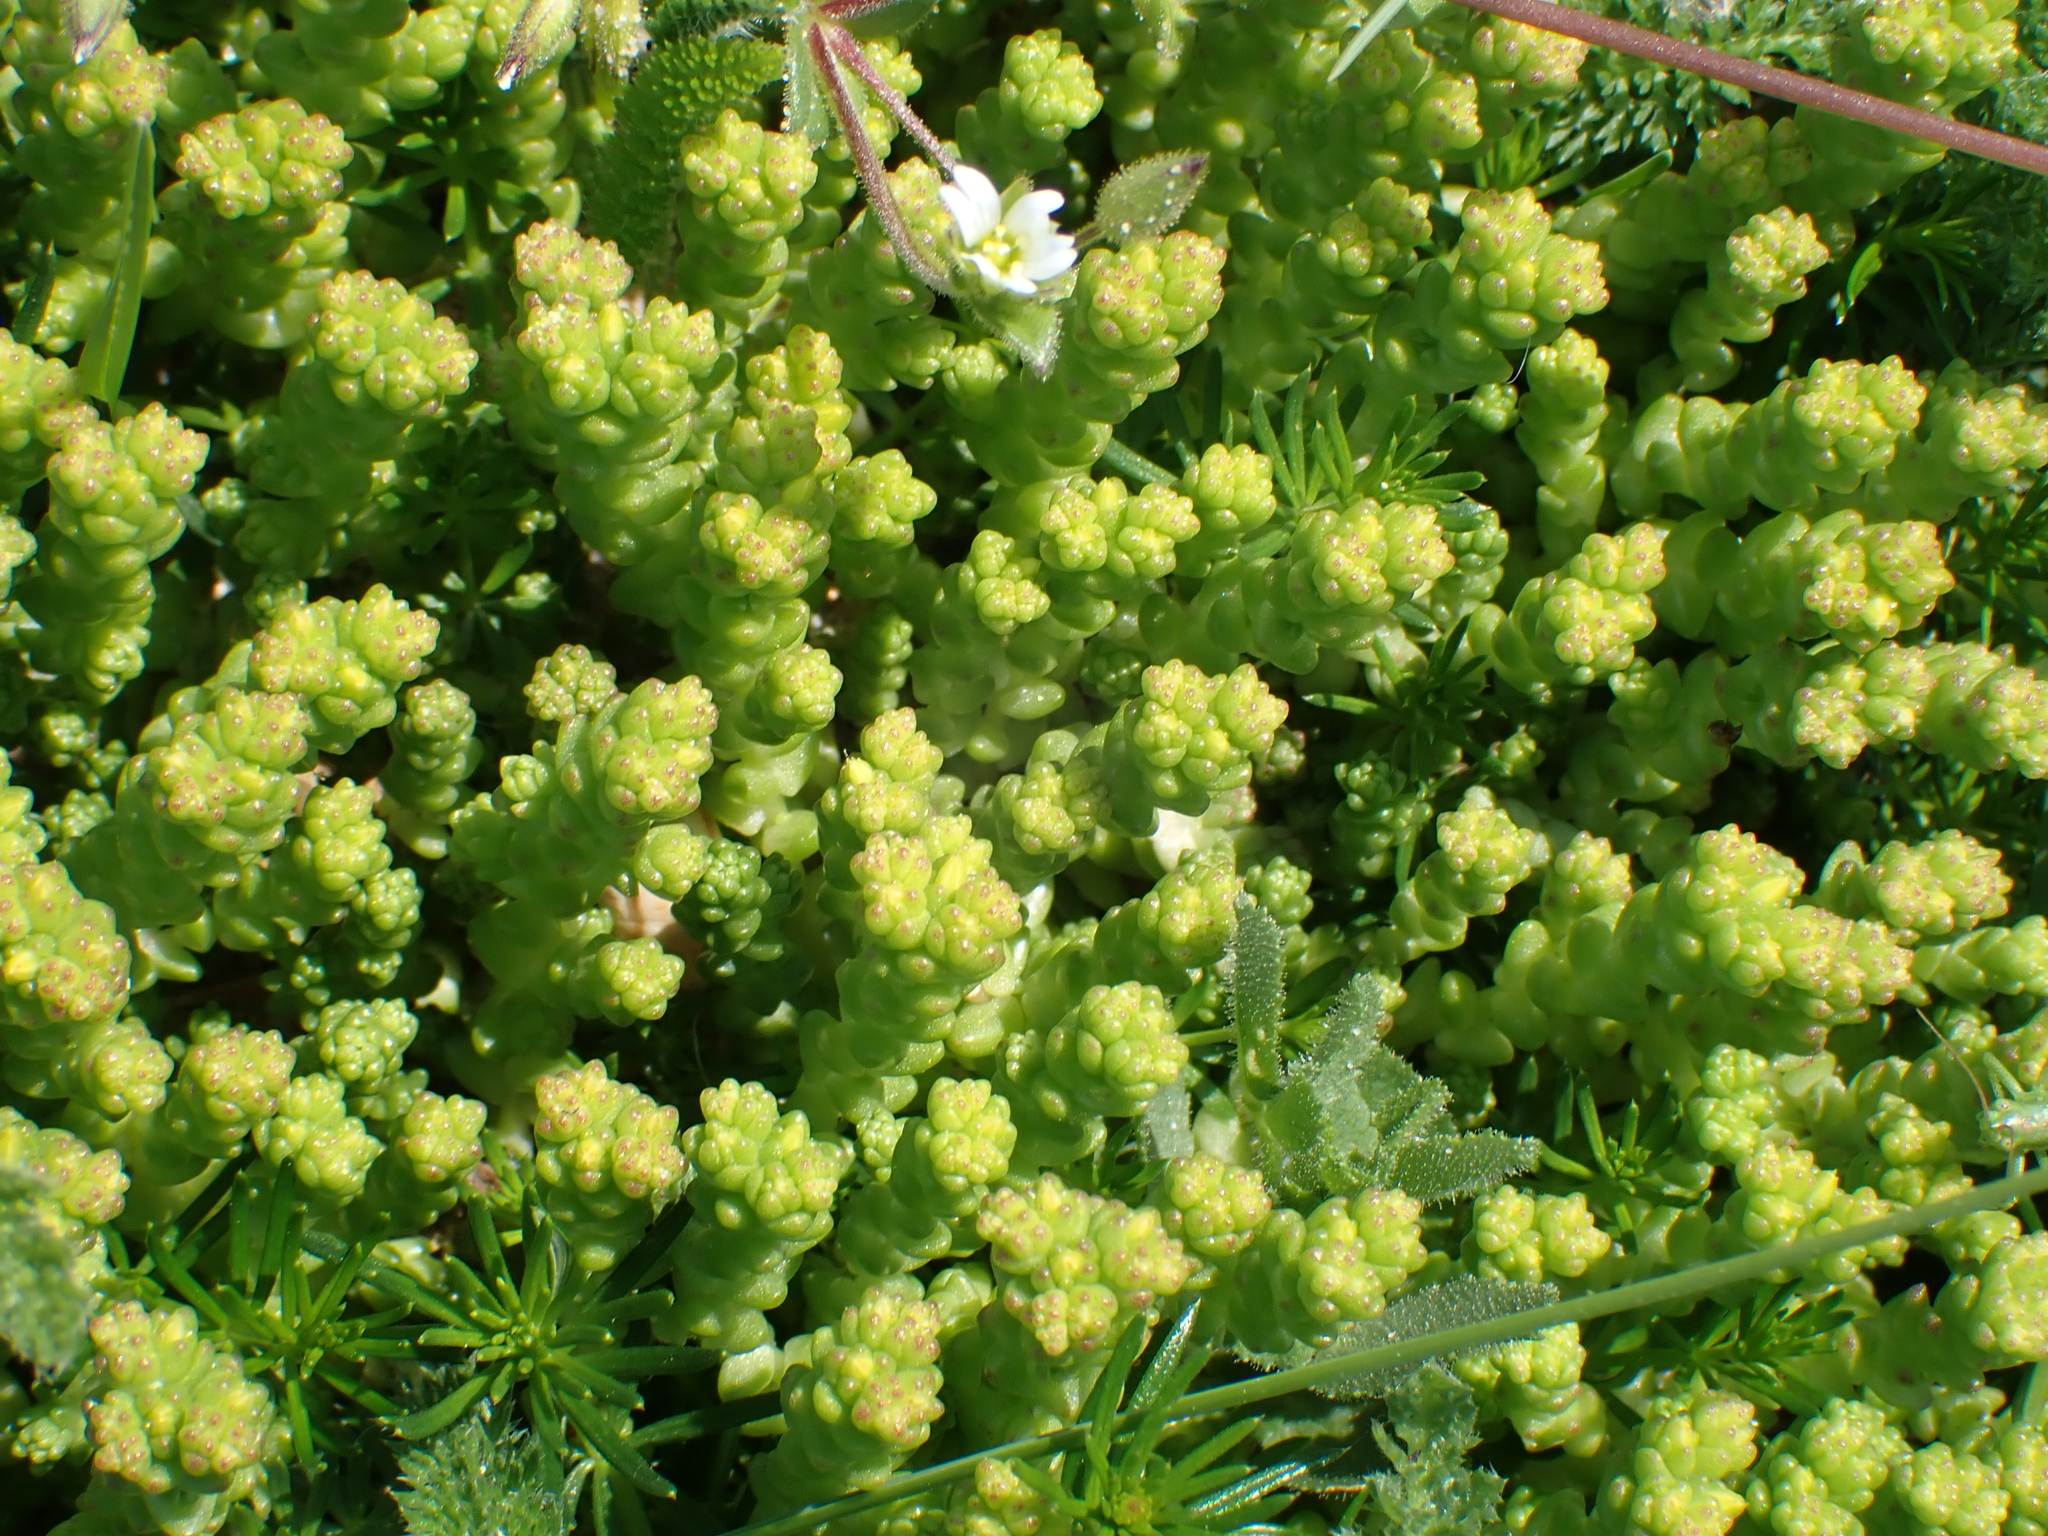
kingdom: Plantae
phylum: Tracheophyta
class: Magnoliopsida
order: Saxifragales
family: Crassulaceae
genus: Sedum
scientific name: Sedum acre
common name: Biting stonecrop
